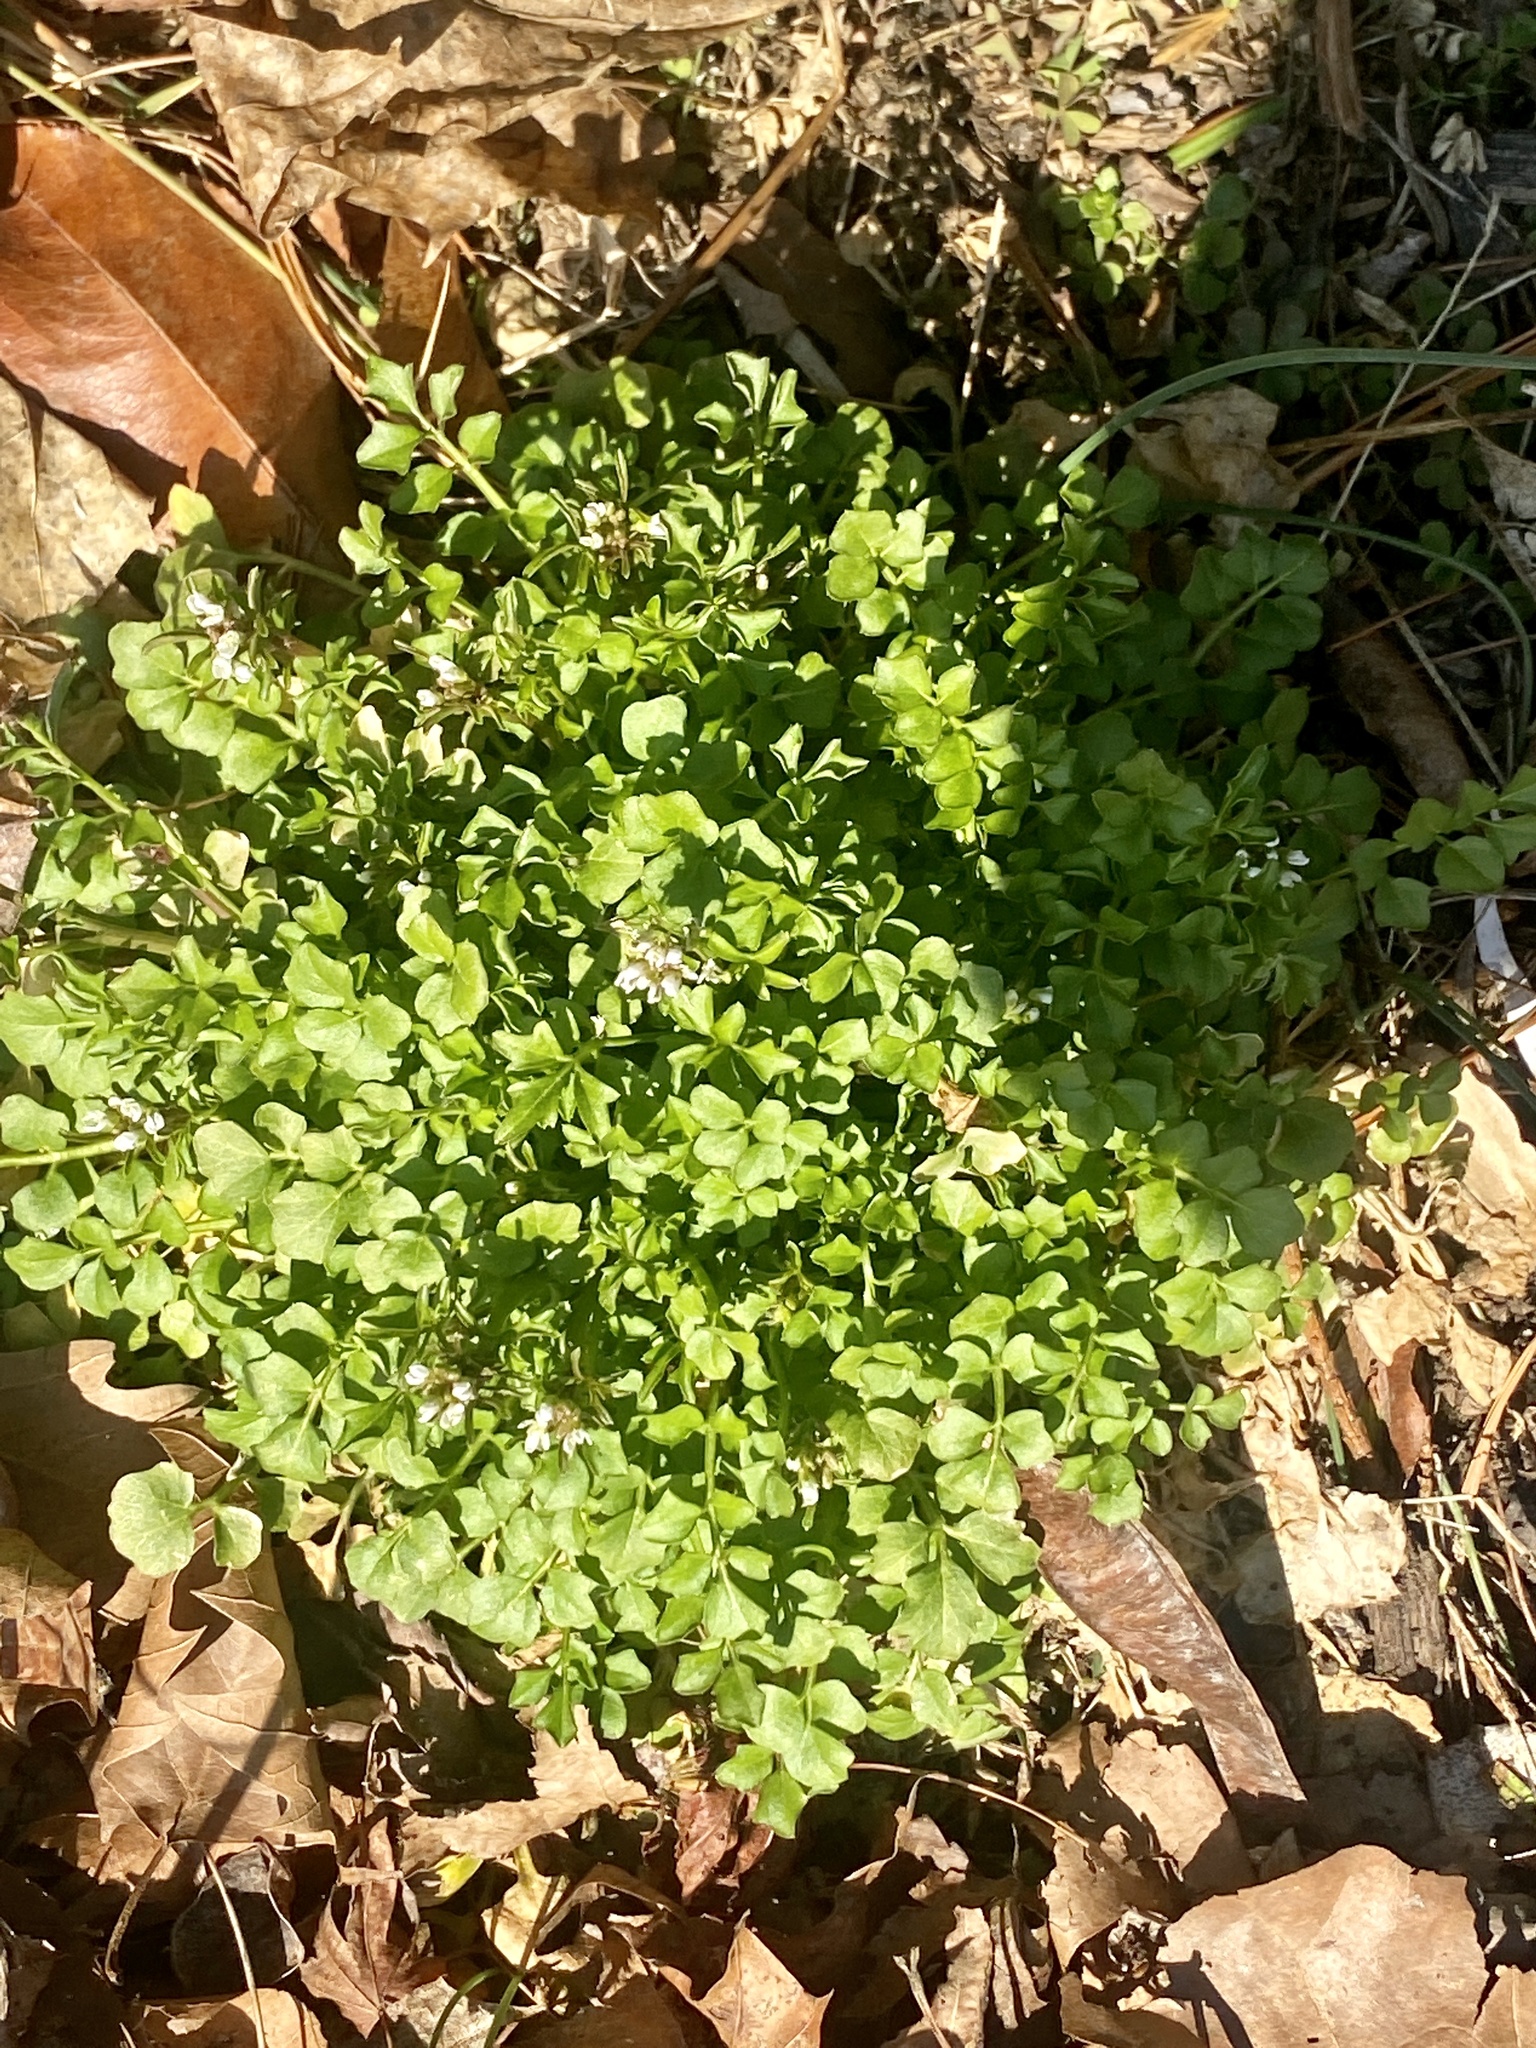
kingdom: Plantae
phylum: Tracheophyta
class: Magnoliopsida
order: Brassicales
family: Brassicaceae
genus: Cardamine
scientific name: Cardamine hirsuta
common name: Hairy bittercress
